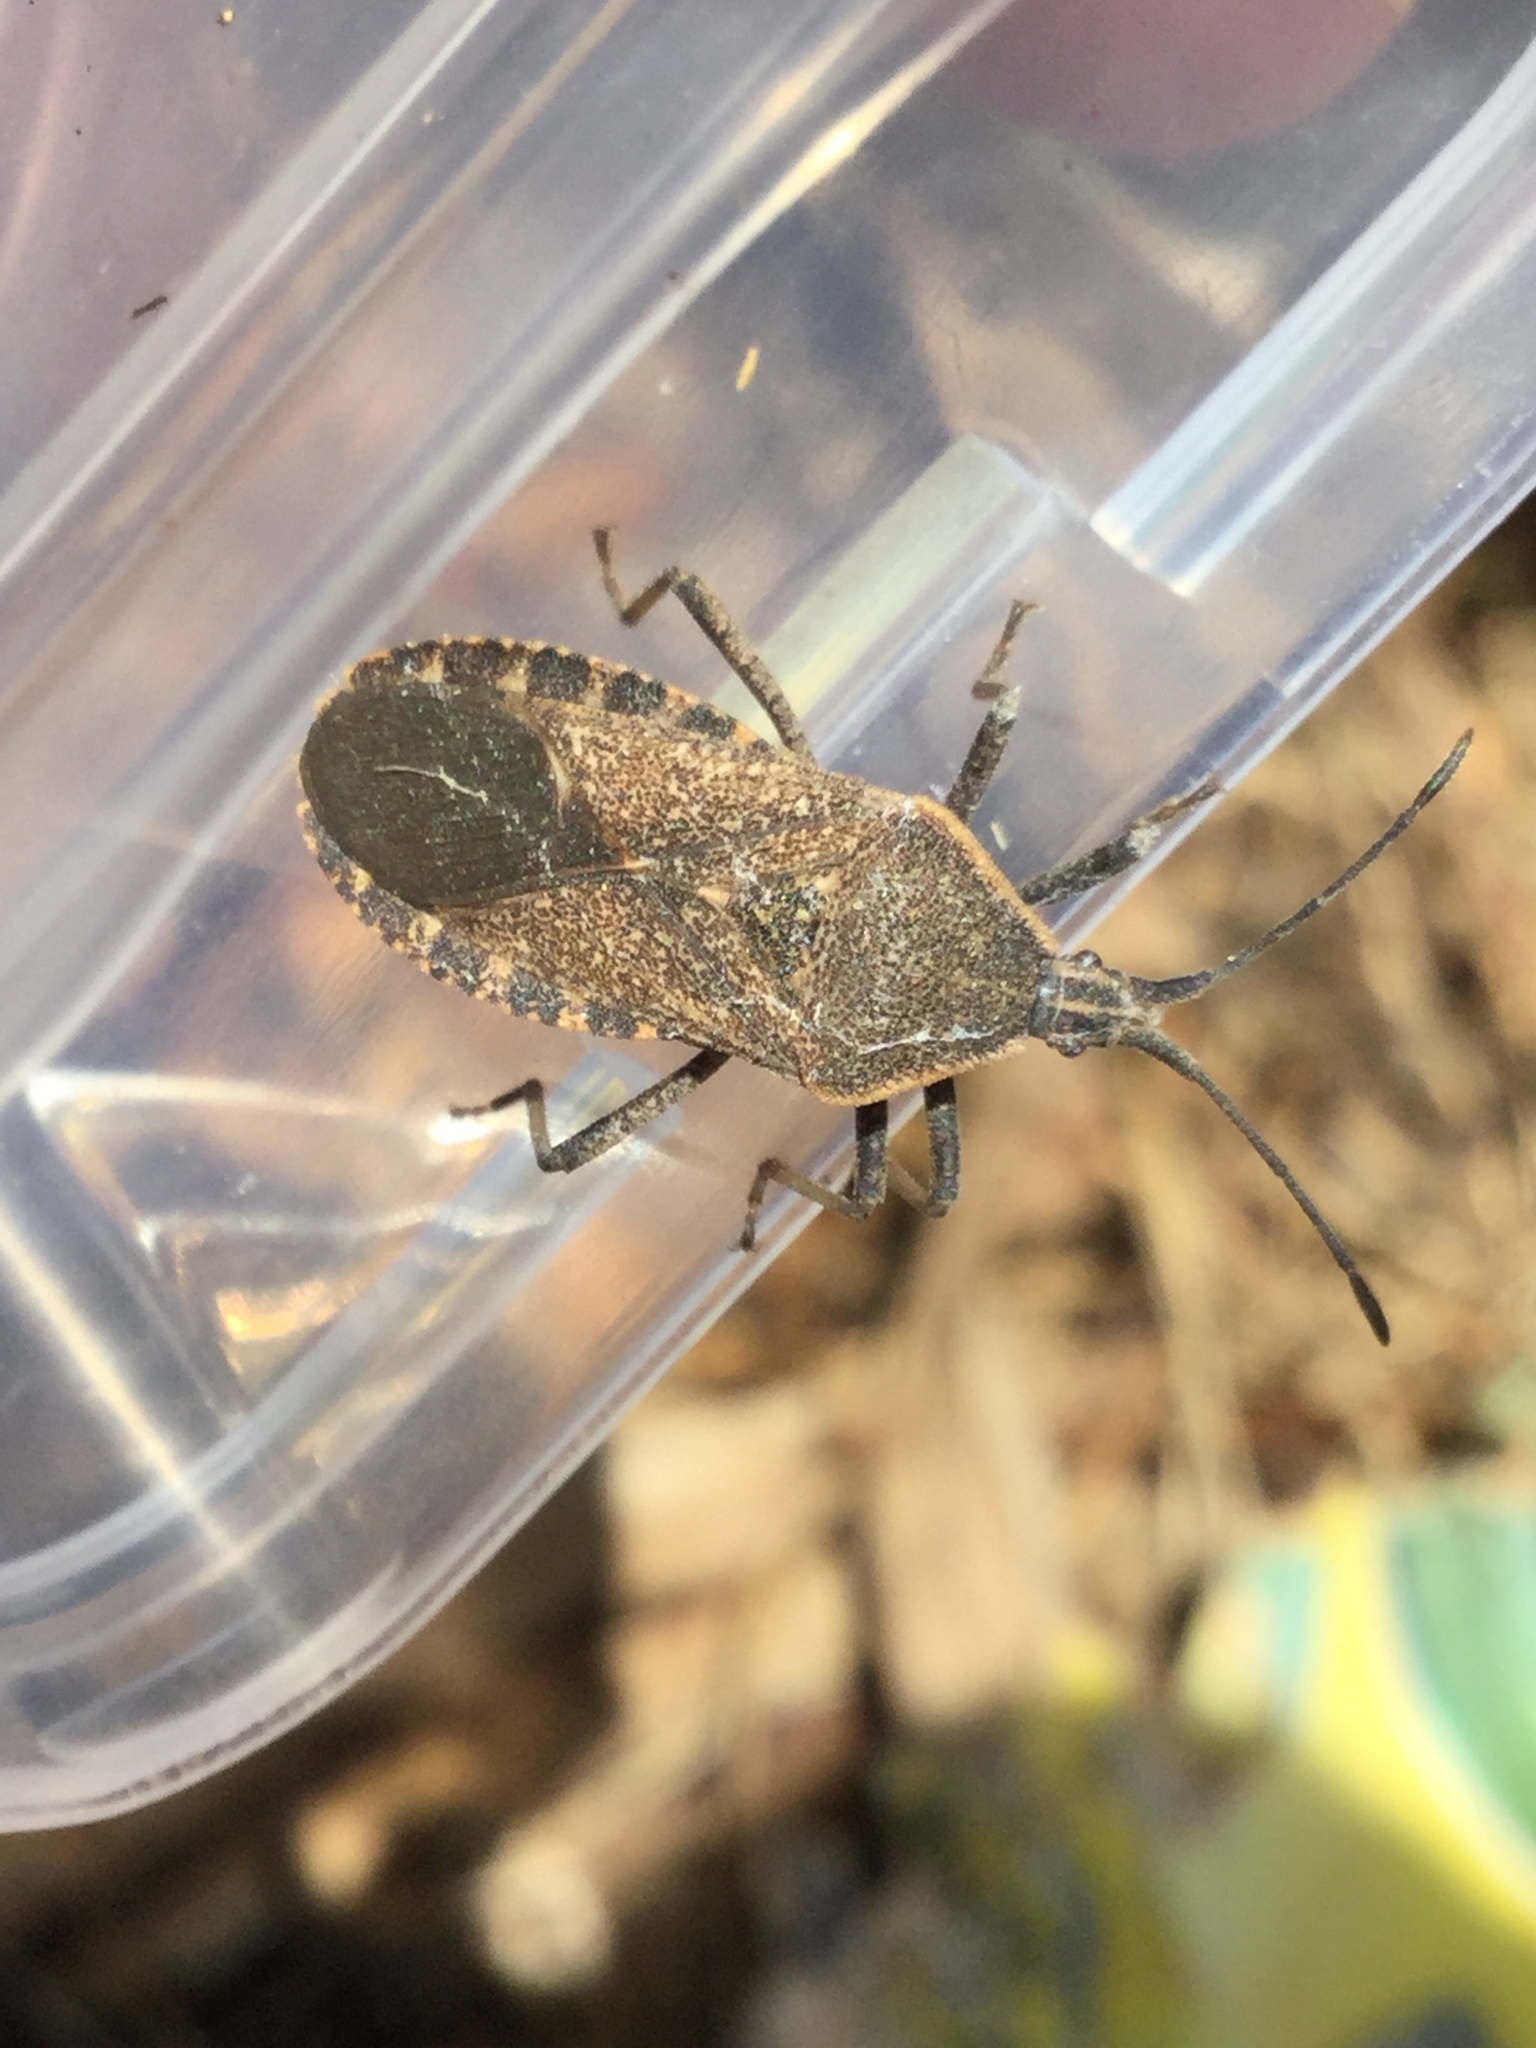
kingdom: Animalia
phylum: Arthropoda
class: Insecta
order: Hemiptera
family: Coreidae
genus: Anasa
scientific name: Anasa tristis
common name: Squash bug
